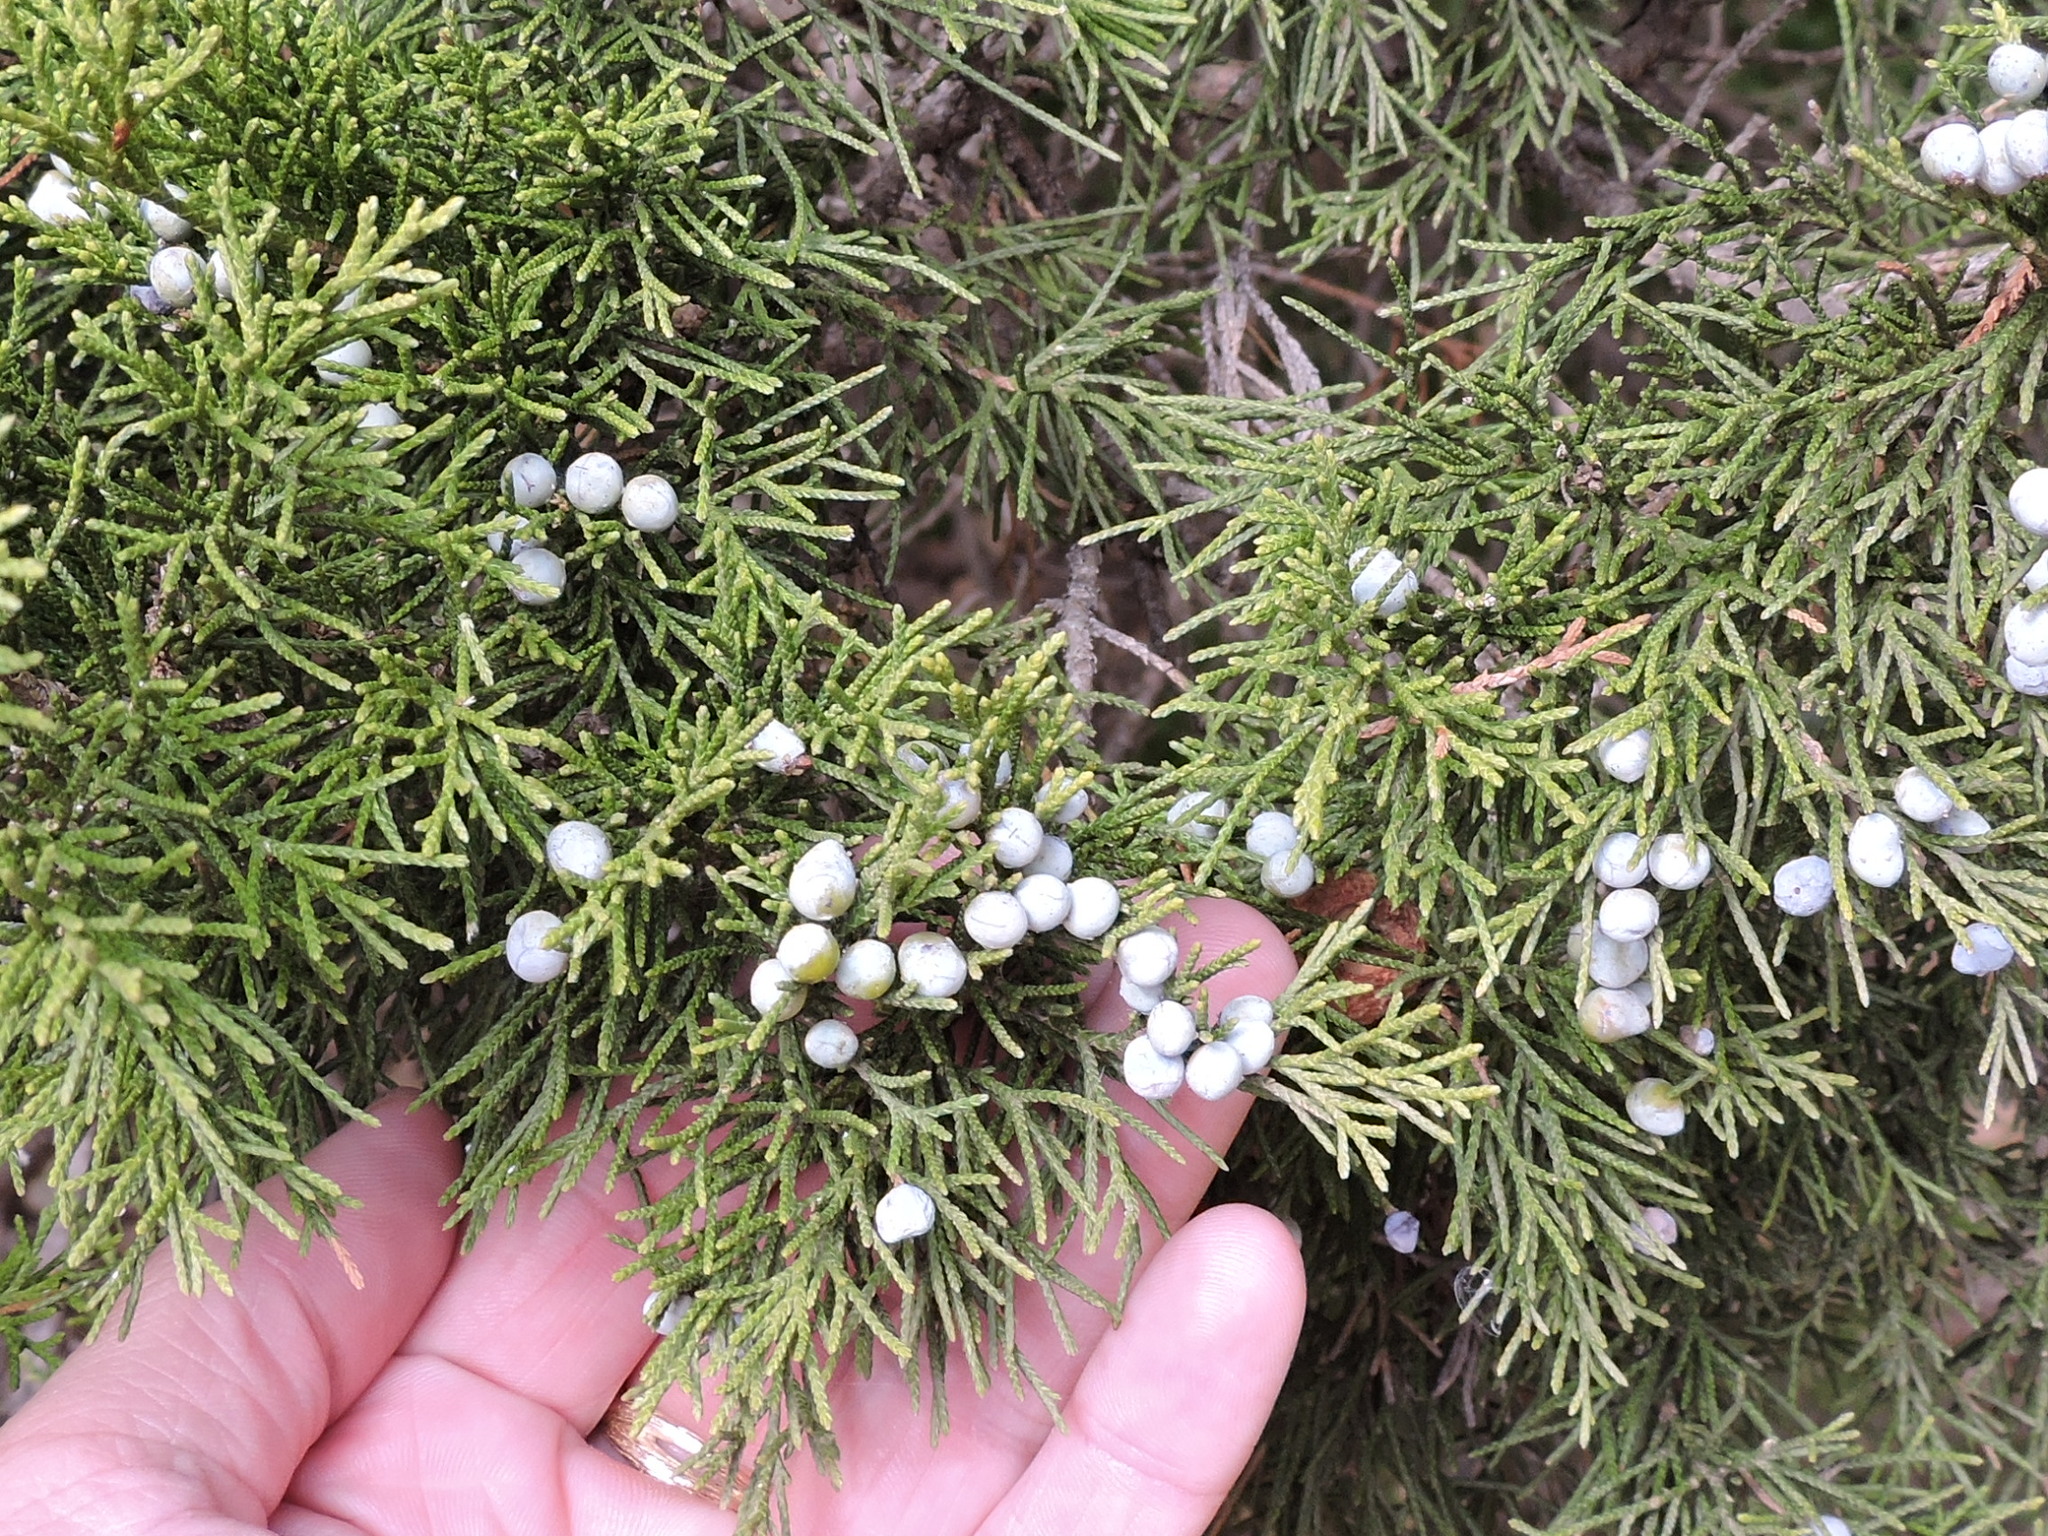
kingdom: Plantae
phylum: Tracheophyta
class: Pinopsida
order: Pinales
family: Cupressaceae
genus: Juniperus
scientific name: Juniperus virginiana
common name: Red juniper
